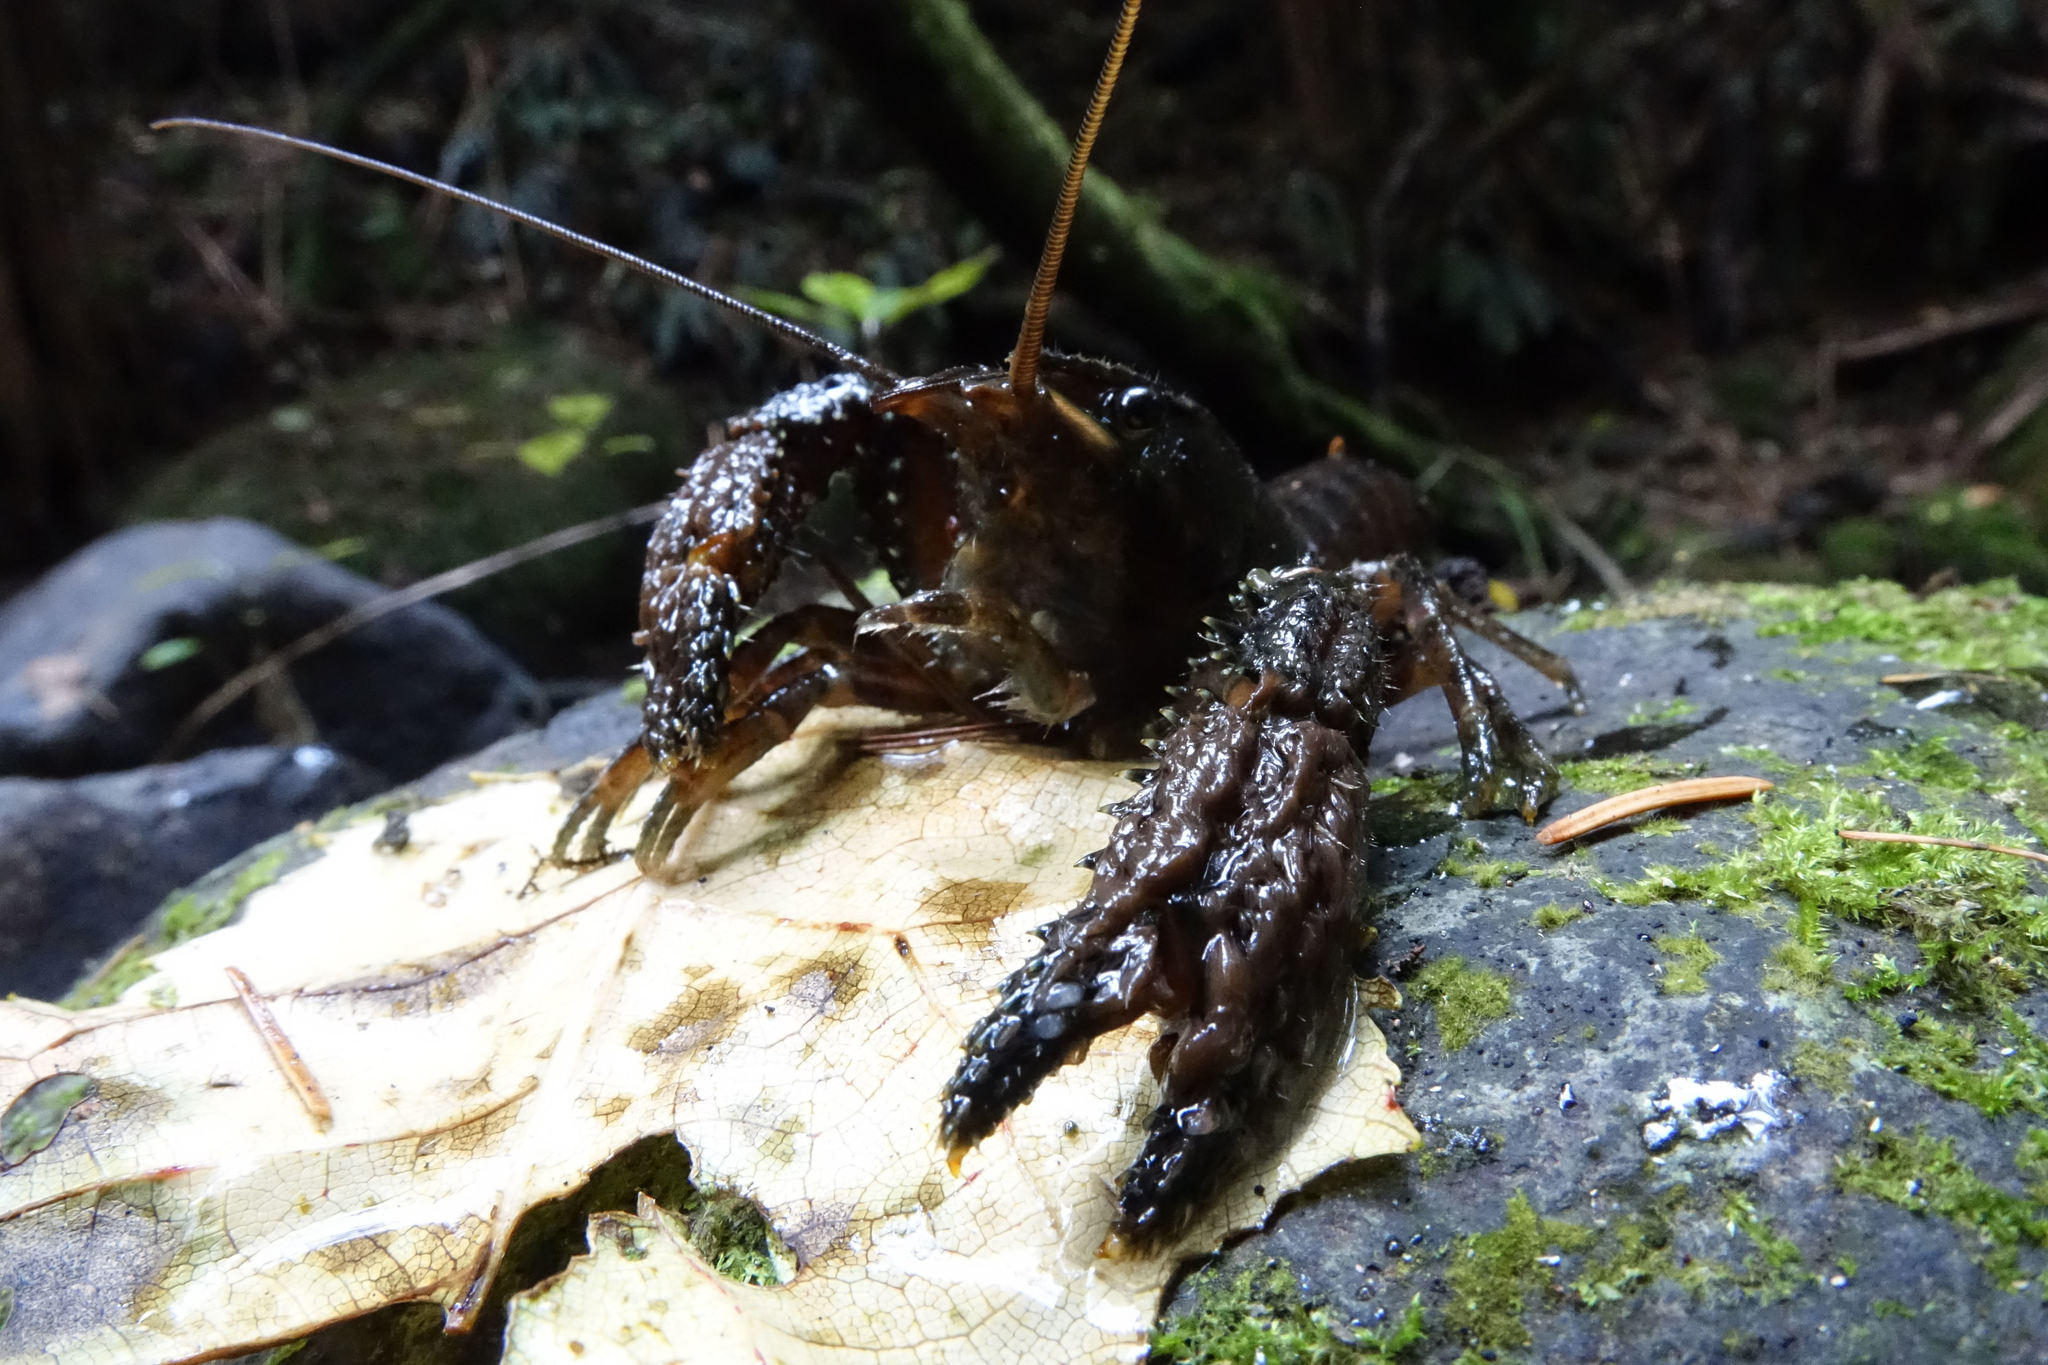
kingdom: Animalia
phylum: Arthropoda
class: Malacostraca
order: Decapoda
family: Parastacidae
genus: Paranephrops
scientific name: Paranephrops zealandicus
